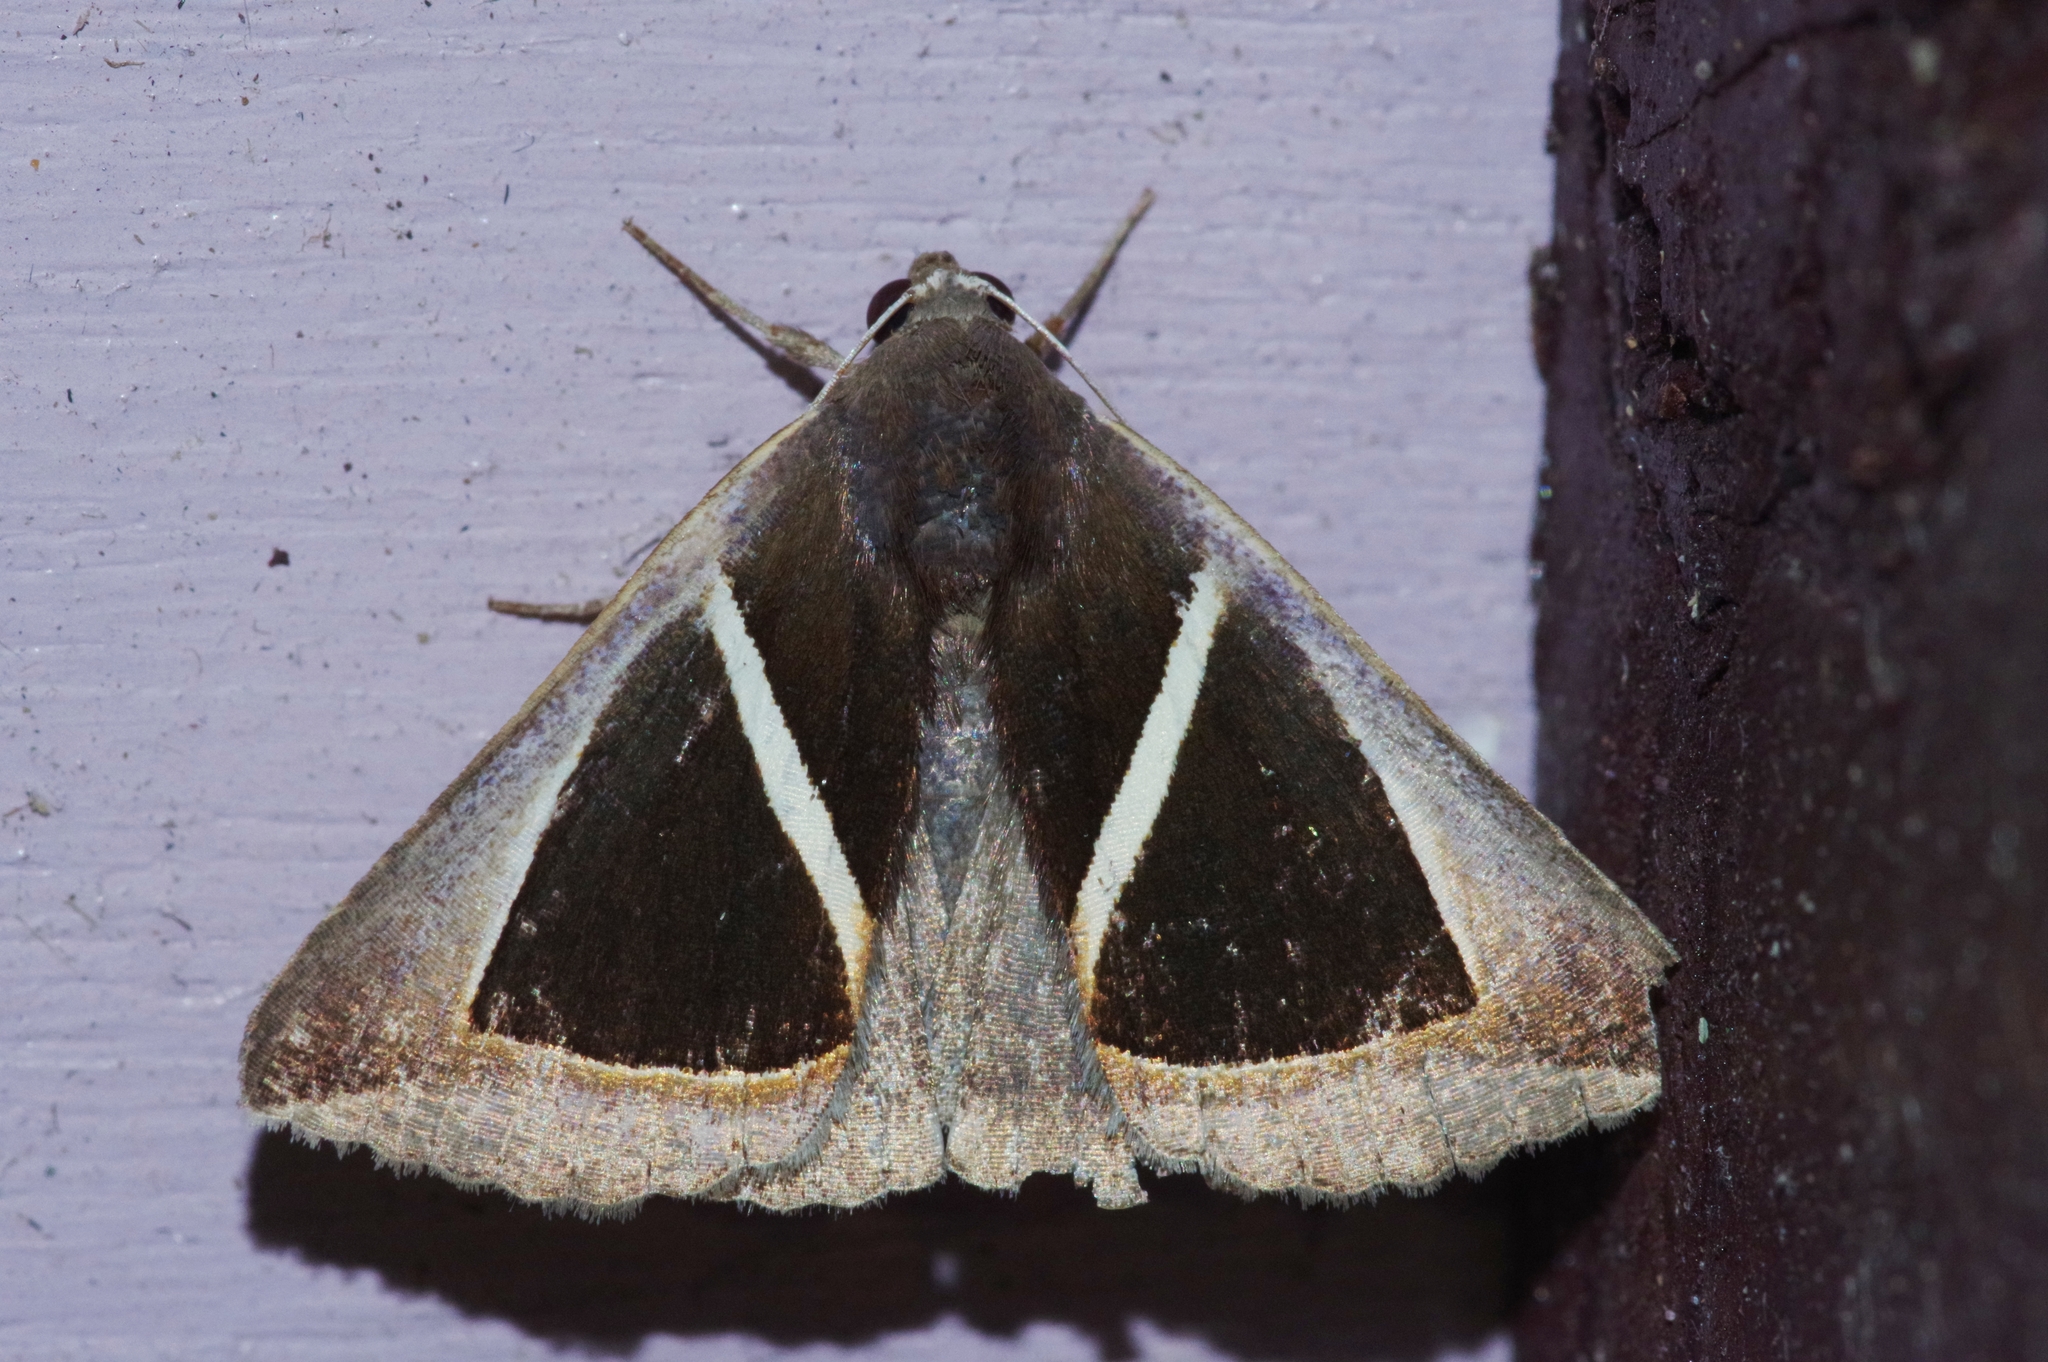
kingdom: Animalia
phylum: Arthropoda
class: Insecta
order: Lepidoptera
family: Erebidae
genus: Chalciope
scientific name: Chalciope mygdon
